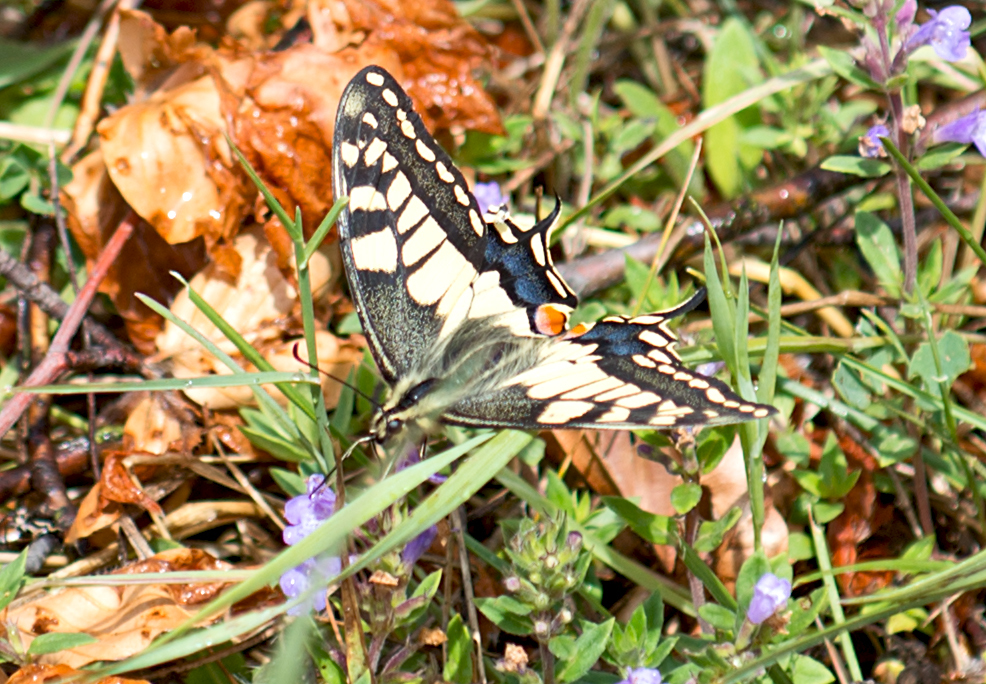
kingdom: Animalia
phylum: Arthropoda
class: Insecta
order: Lepidoptera
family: Papilionidae
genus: Papilio
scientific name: Papilio machaon
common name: Swallowtail
